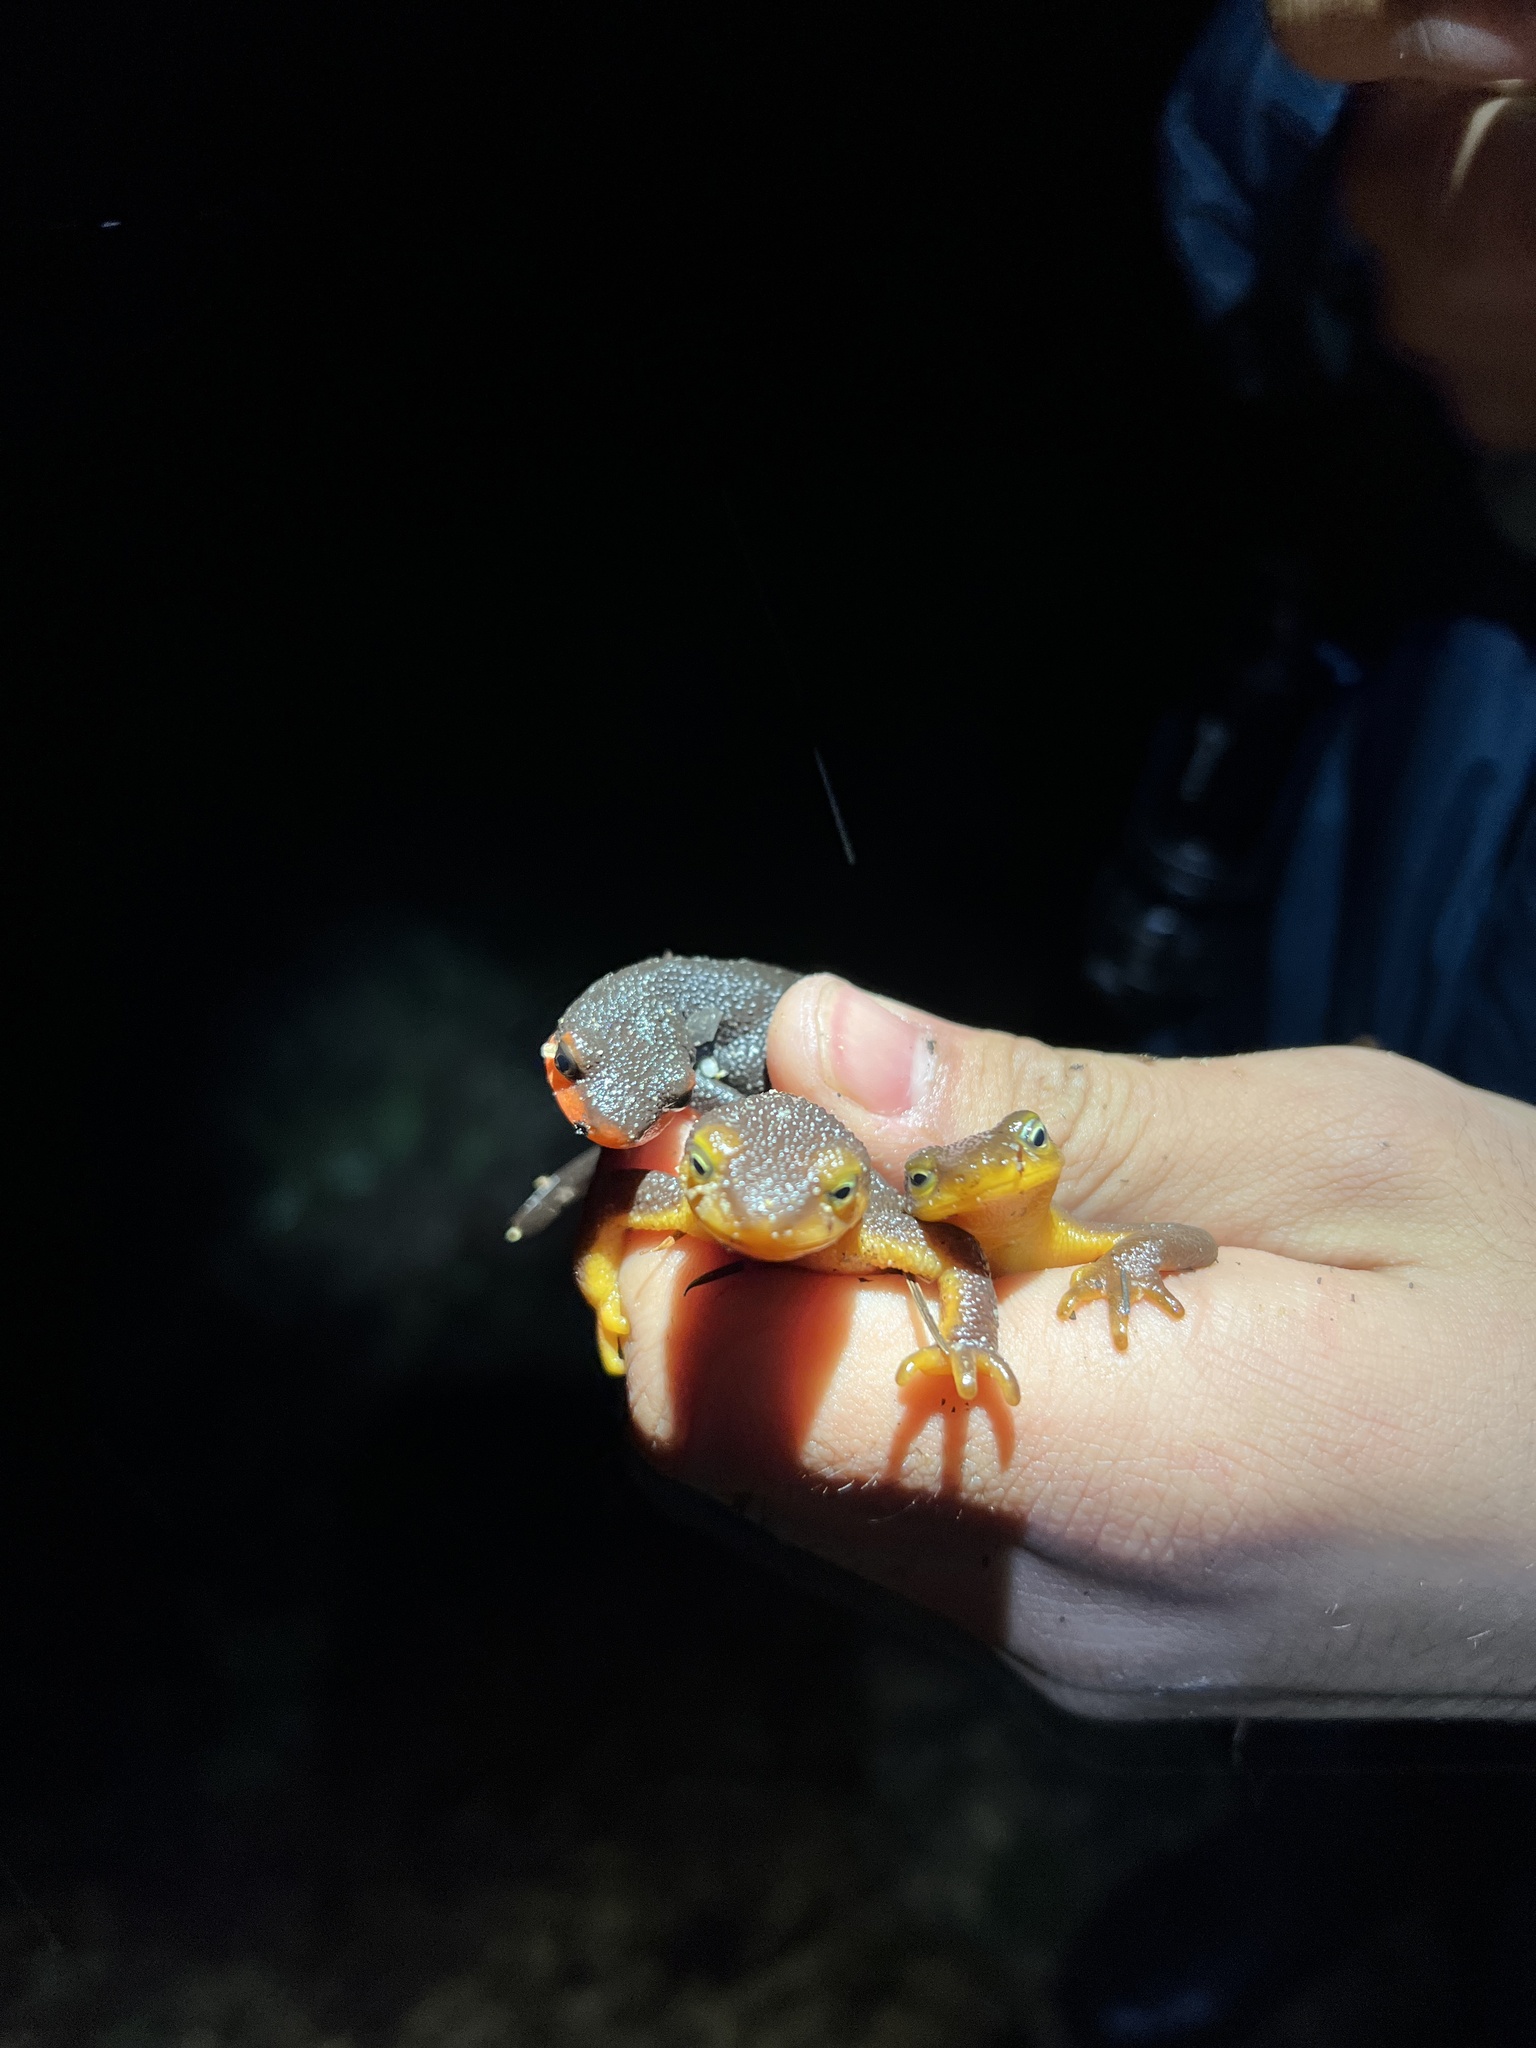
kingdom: Animalia
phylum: Chordata
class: Amphibia
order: Caudata
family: Salamandridae
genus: Taricha
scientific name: Taricha torosa
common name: California newt
